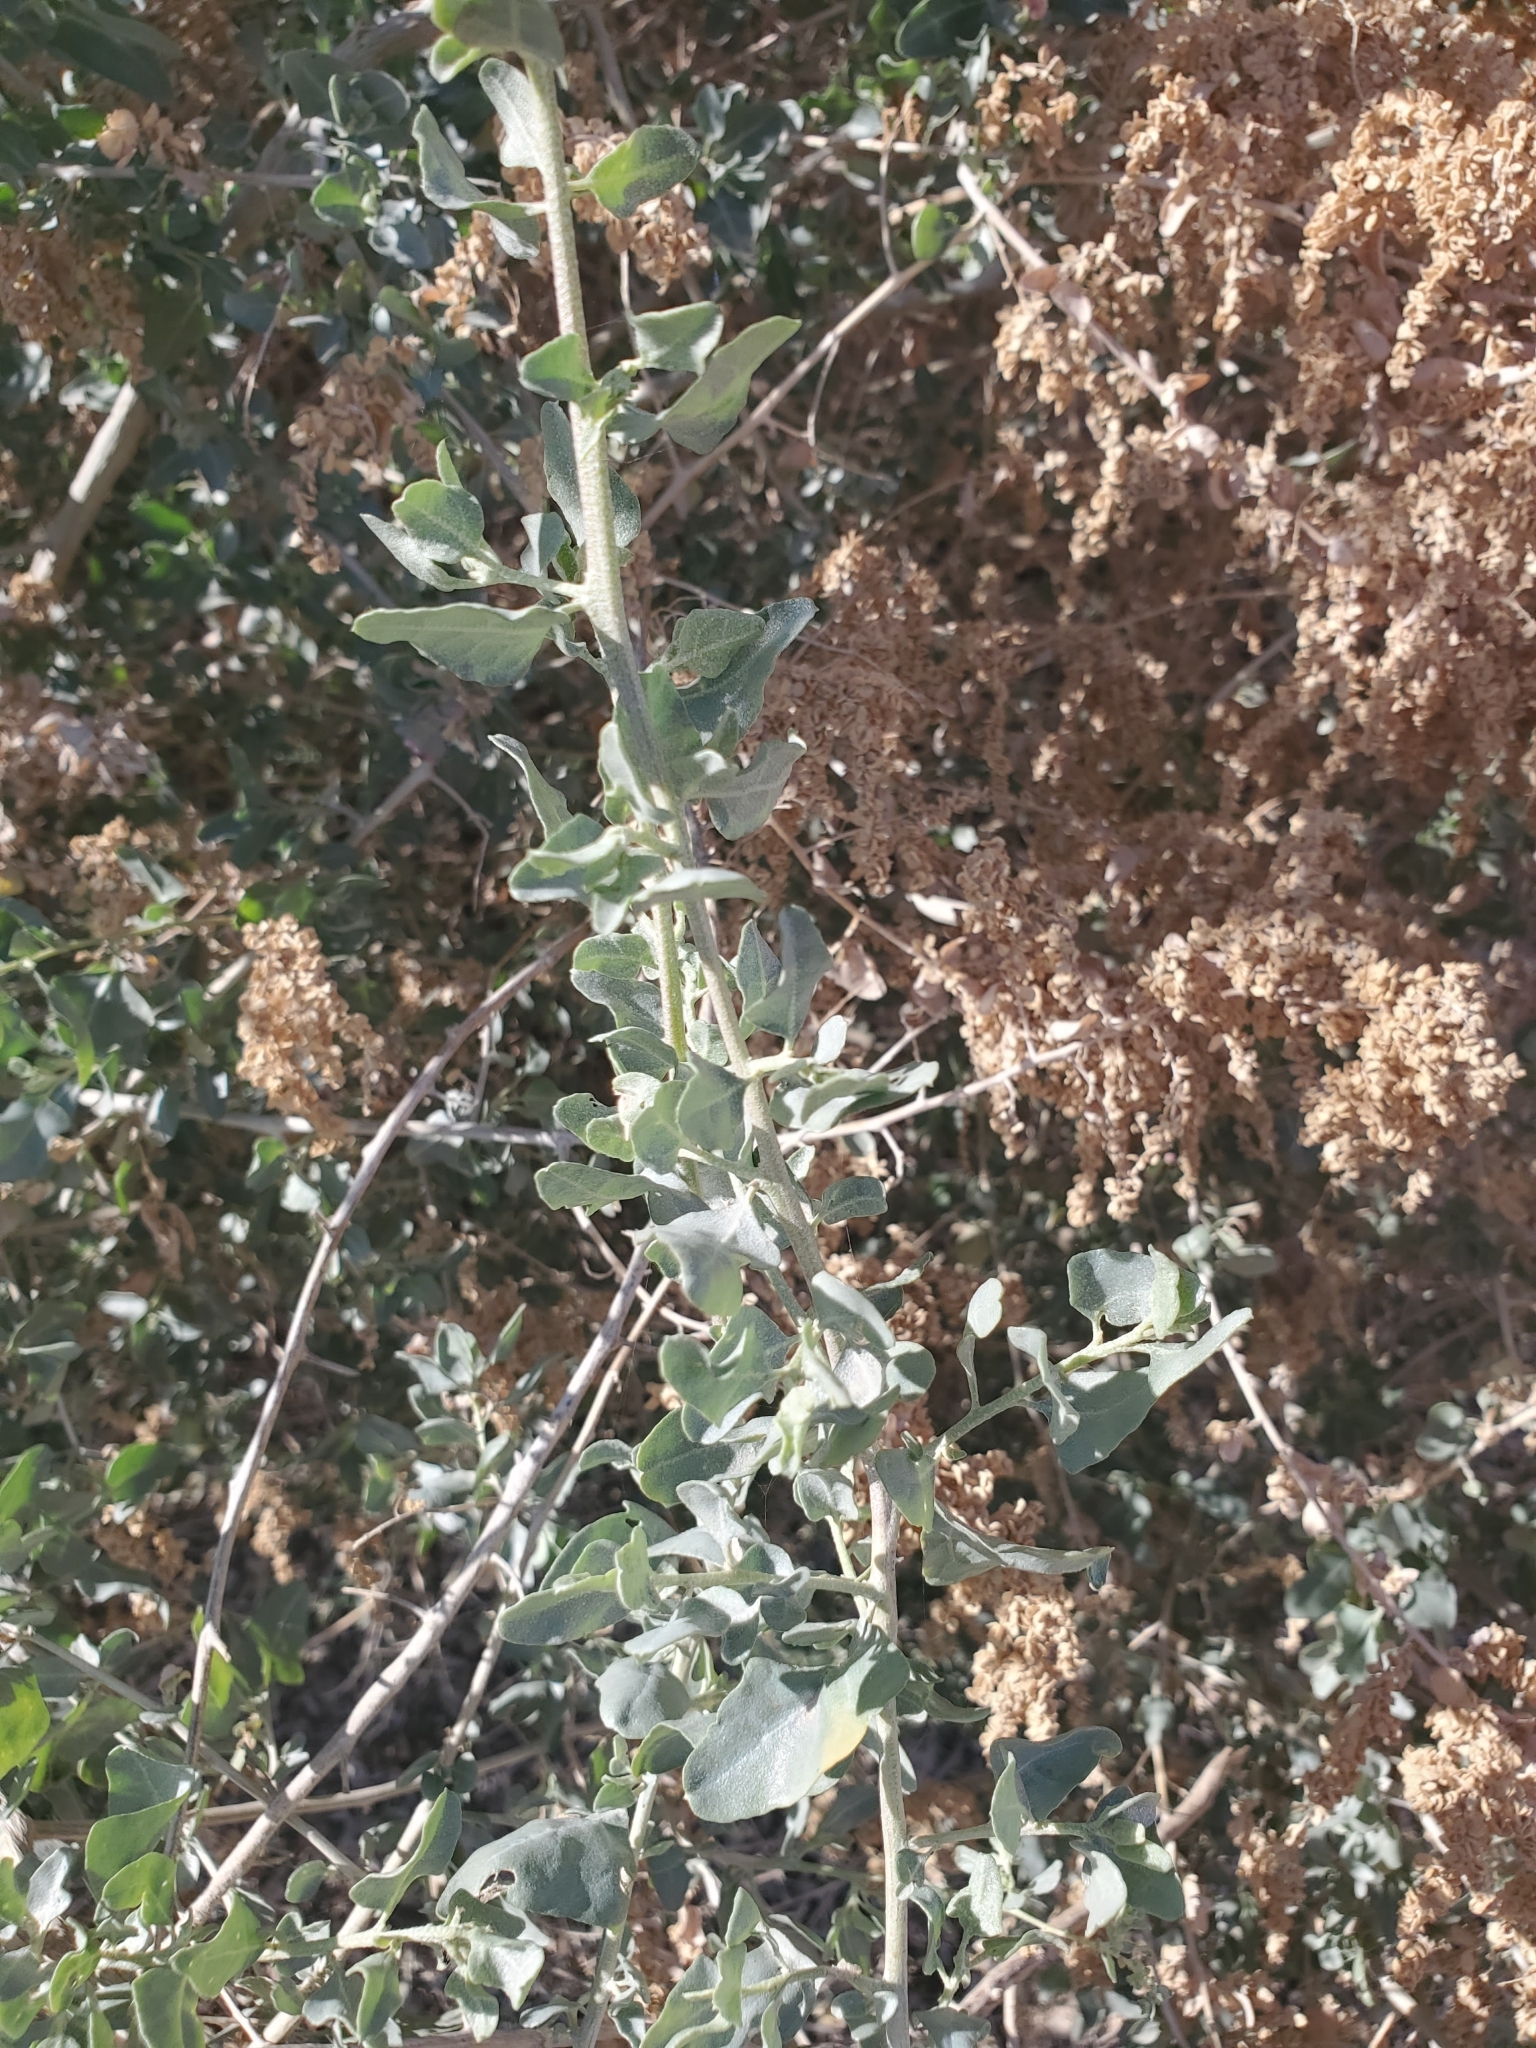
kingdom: Plantae
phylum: Tracheophyta
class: Magnoliopsida
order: Caryophyllales
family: Amaranthaceae
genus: Atriplex
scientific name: Atriplex lentiformis
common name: Big saltbush
